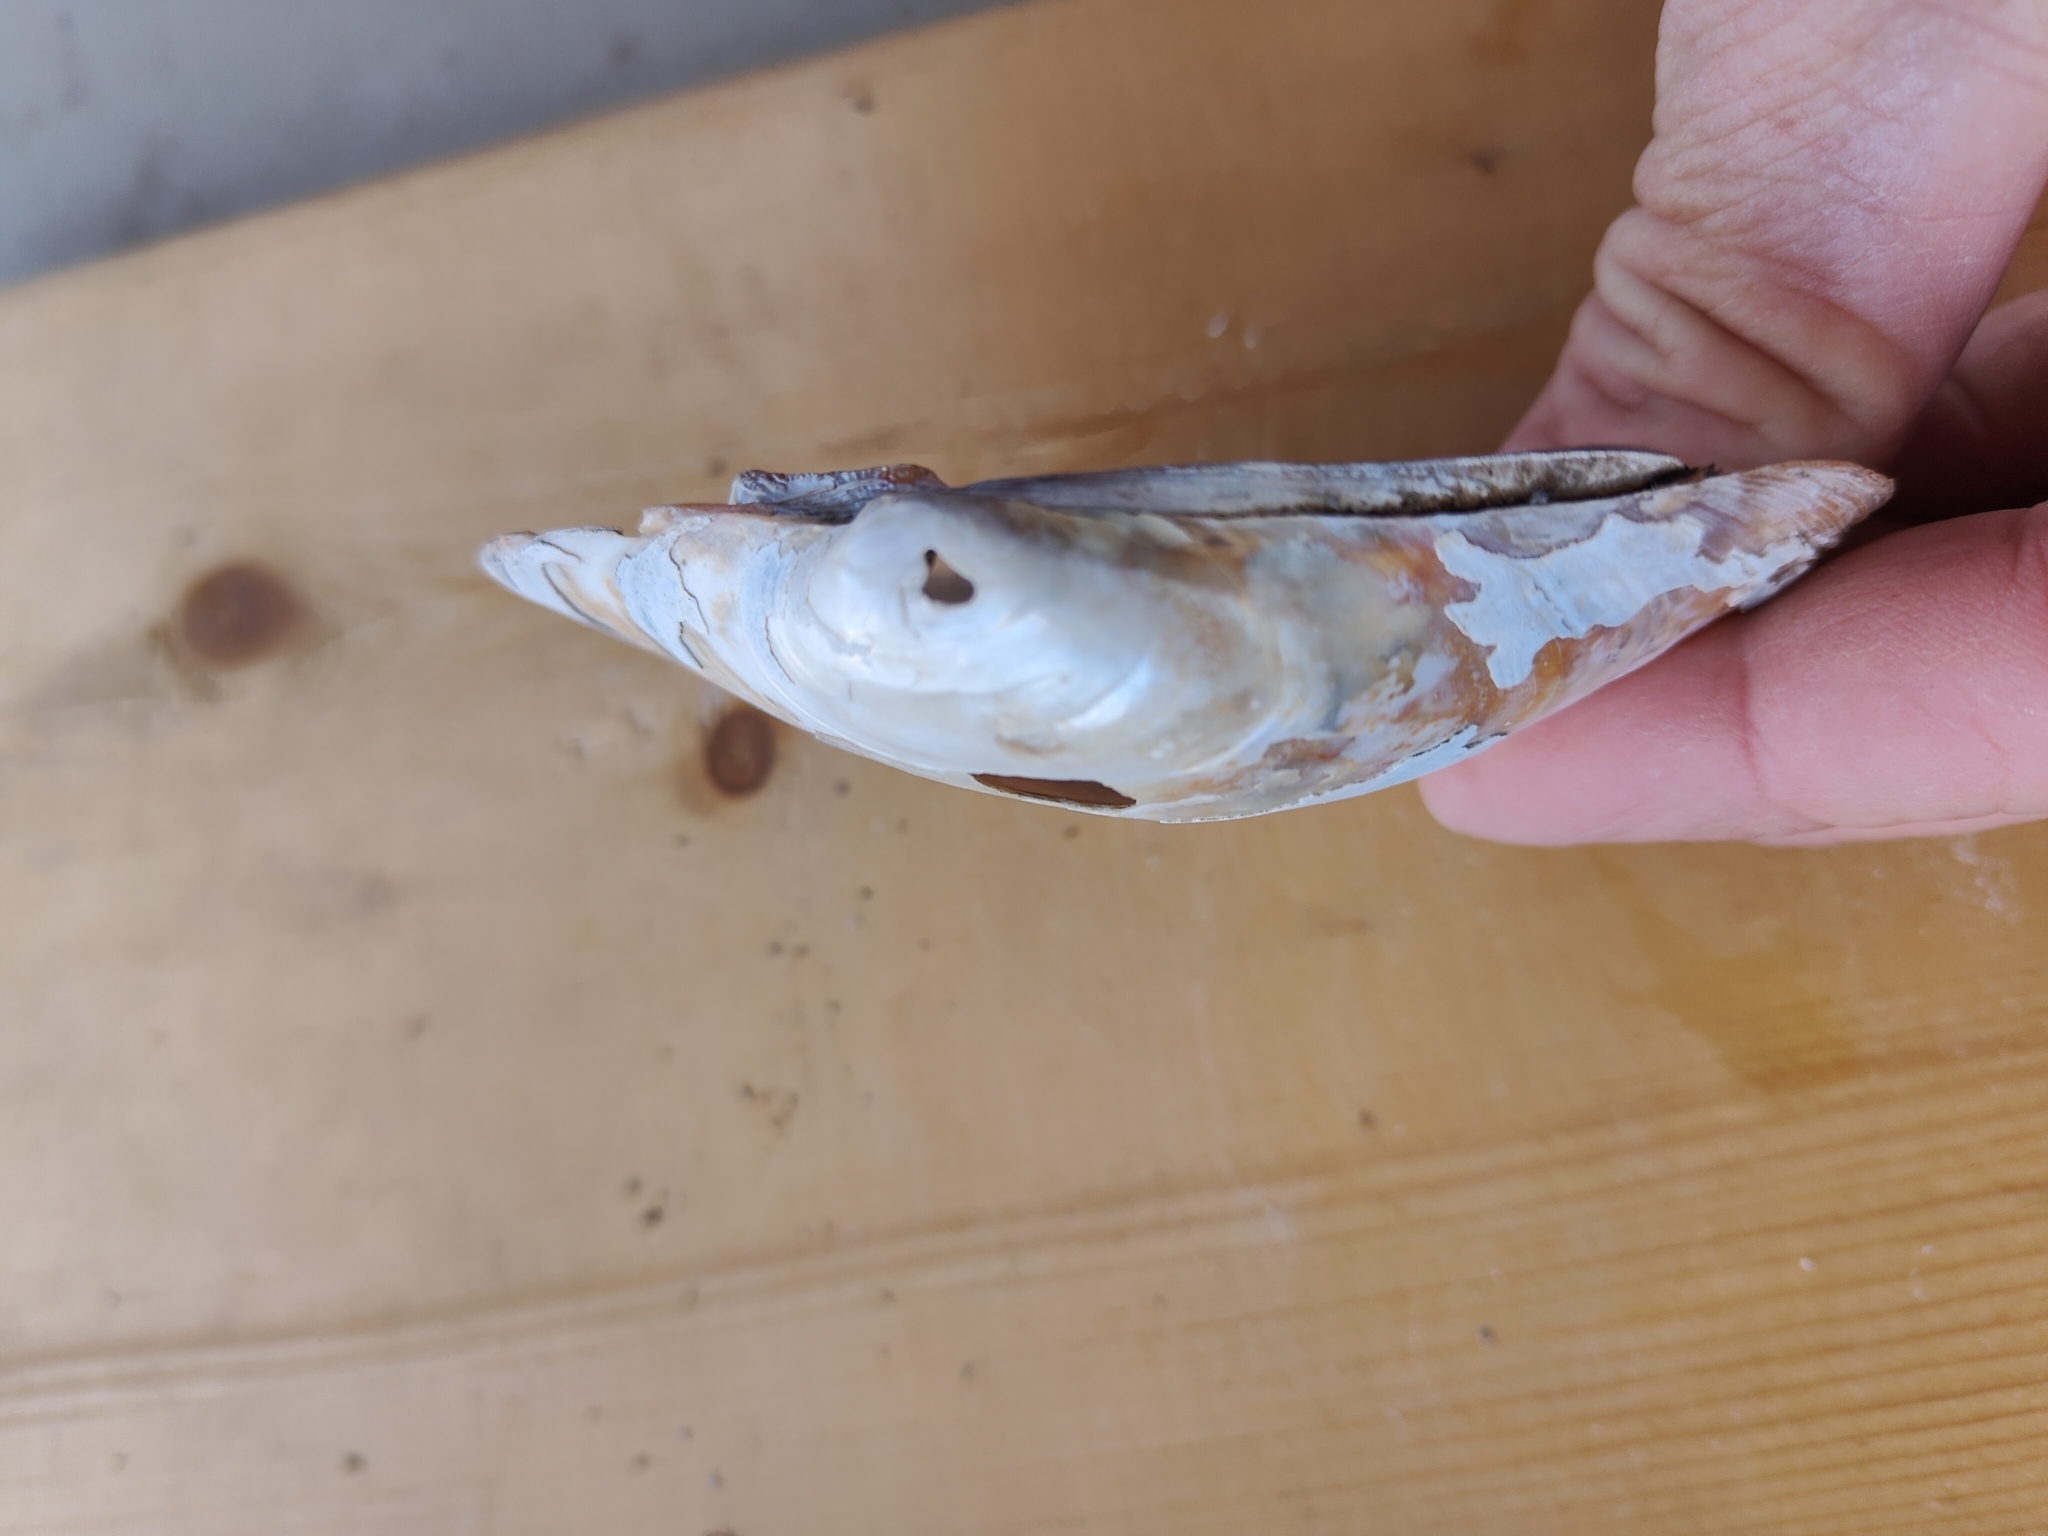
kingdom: Animalia
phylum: Mollusca
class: Bivalvia
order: Unionida
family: Unionidae
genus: Lampsilis
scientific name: Lampsilis cardium
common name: Plain pocketbook
